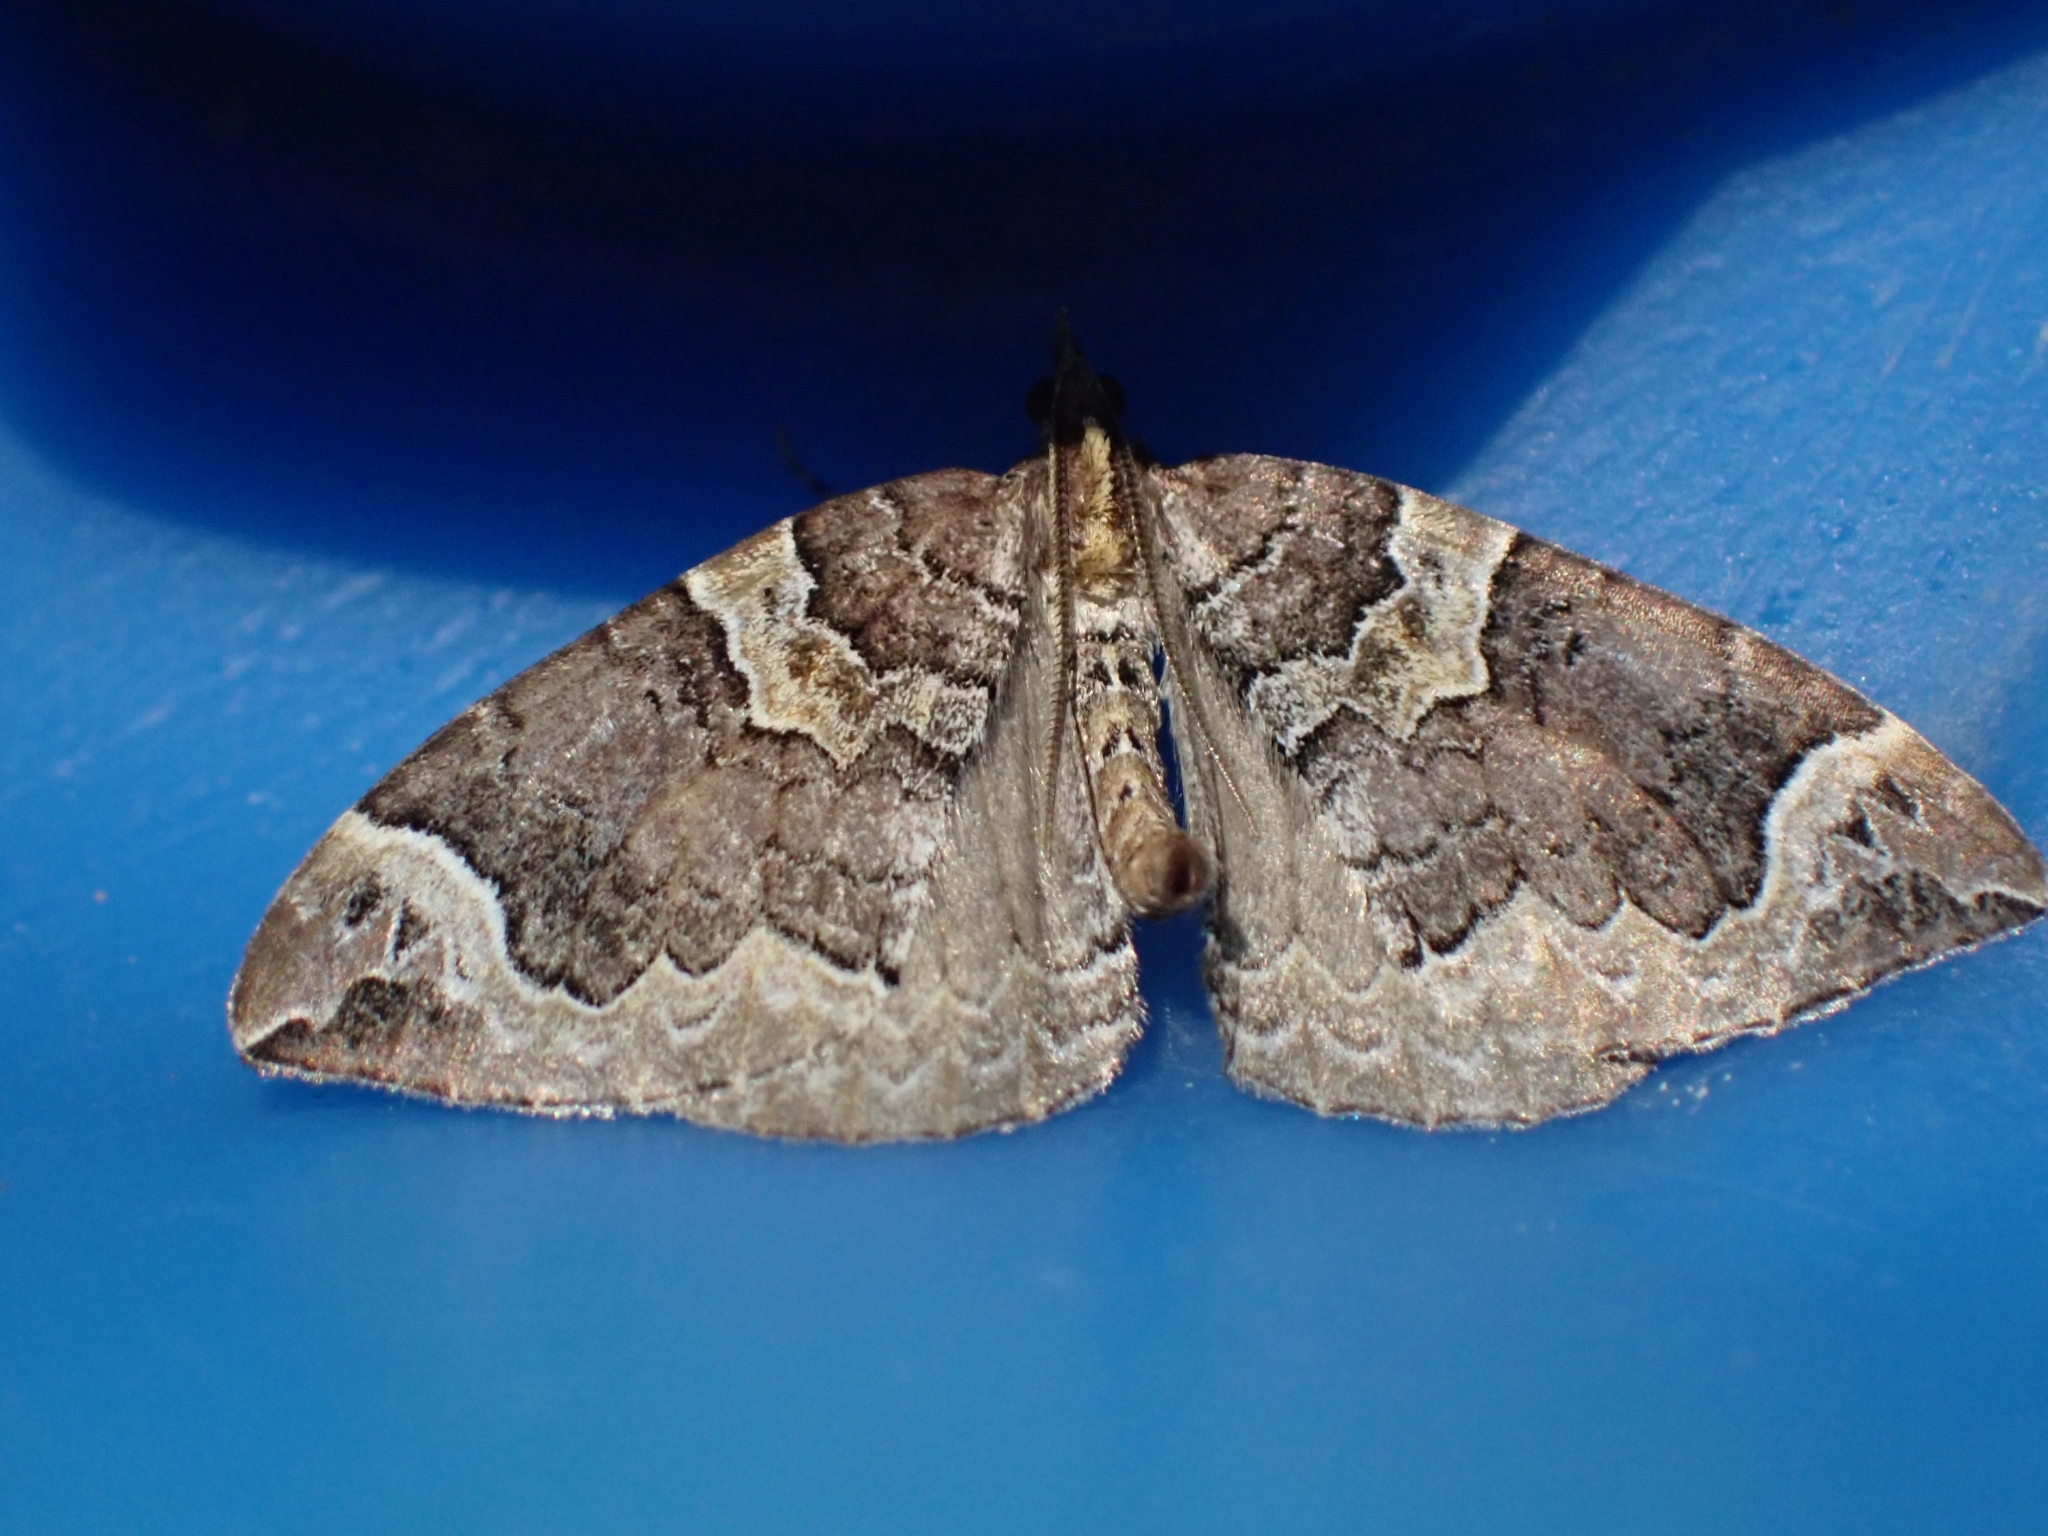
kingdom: Animalia
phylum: Arthropoda
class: Insecta
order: Lepidoptera
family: Geometridae
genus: Eulithis
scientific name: Eulithis xylina
